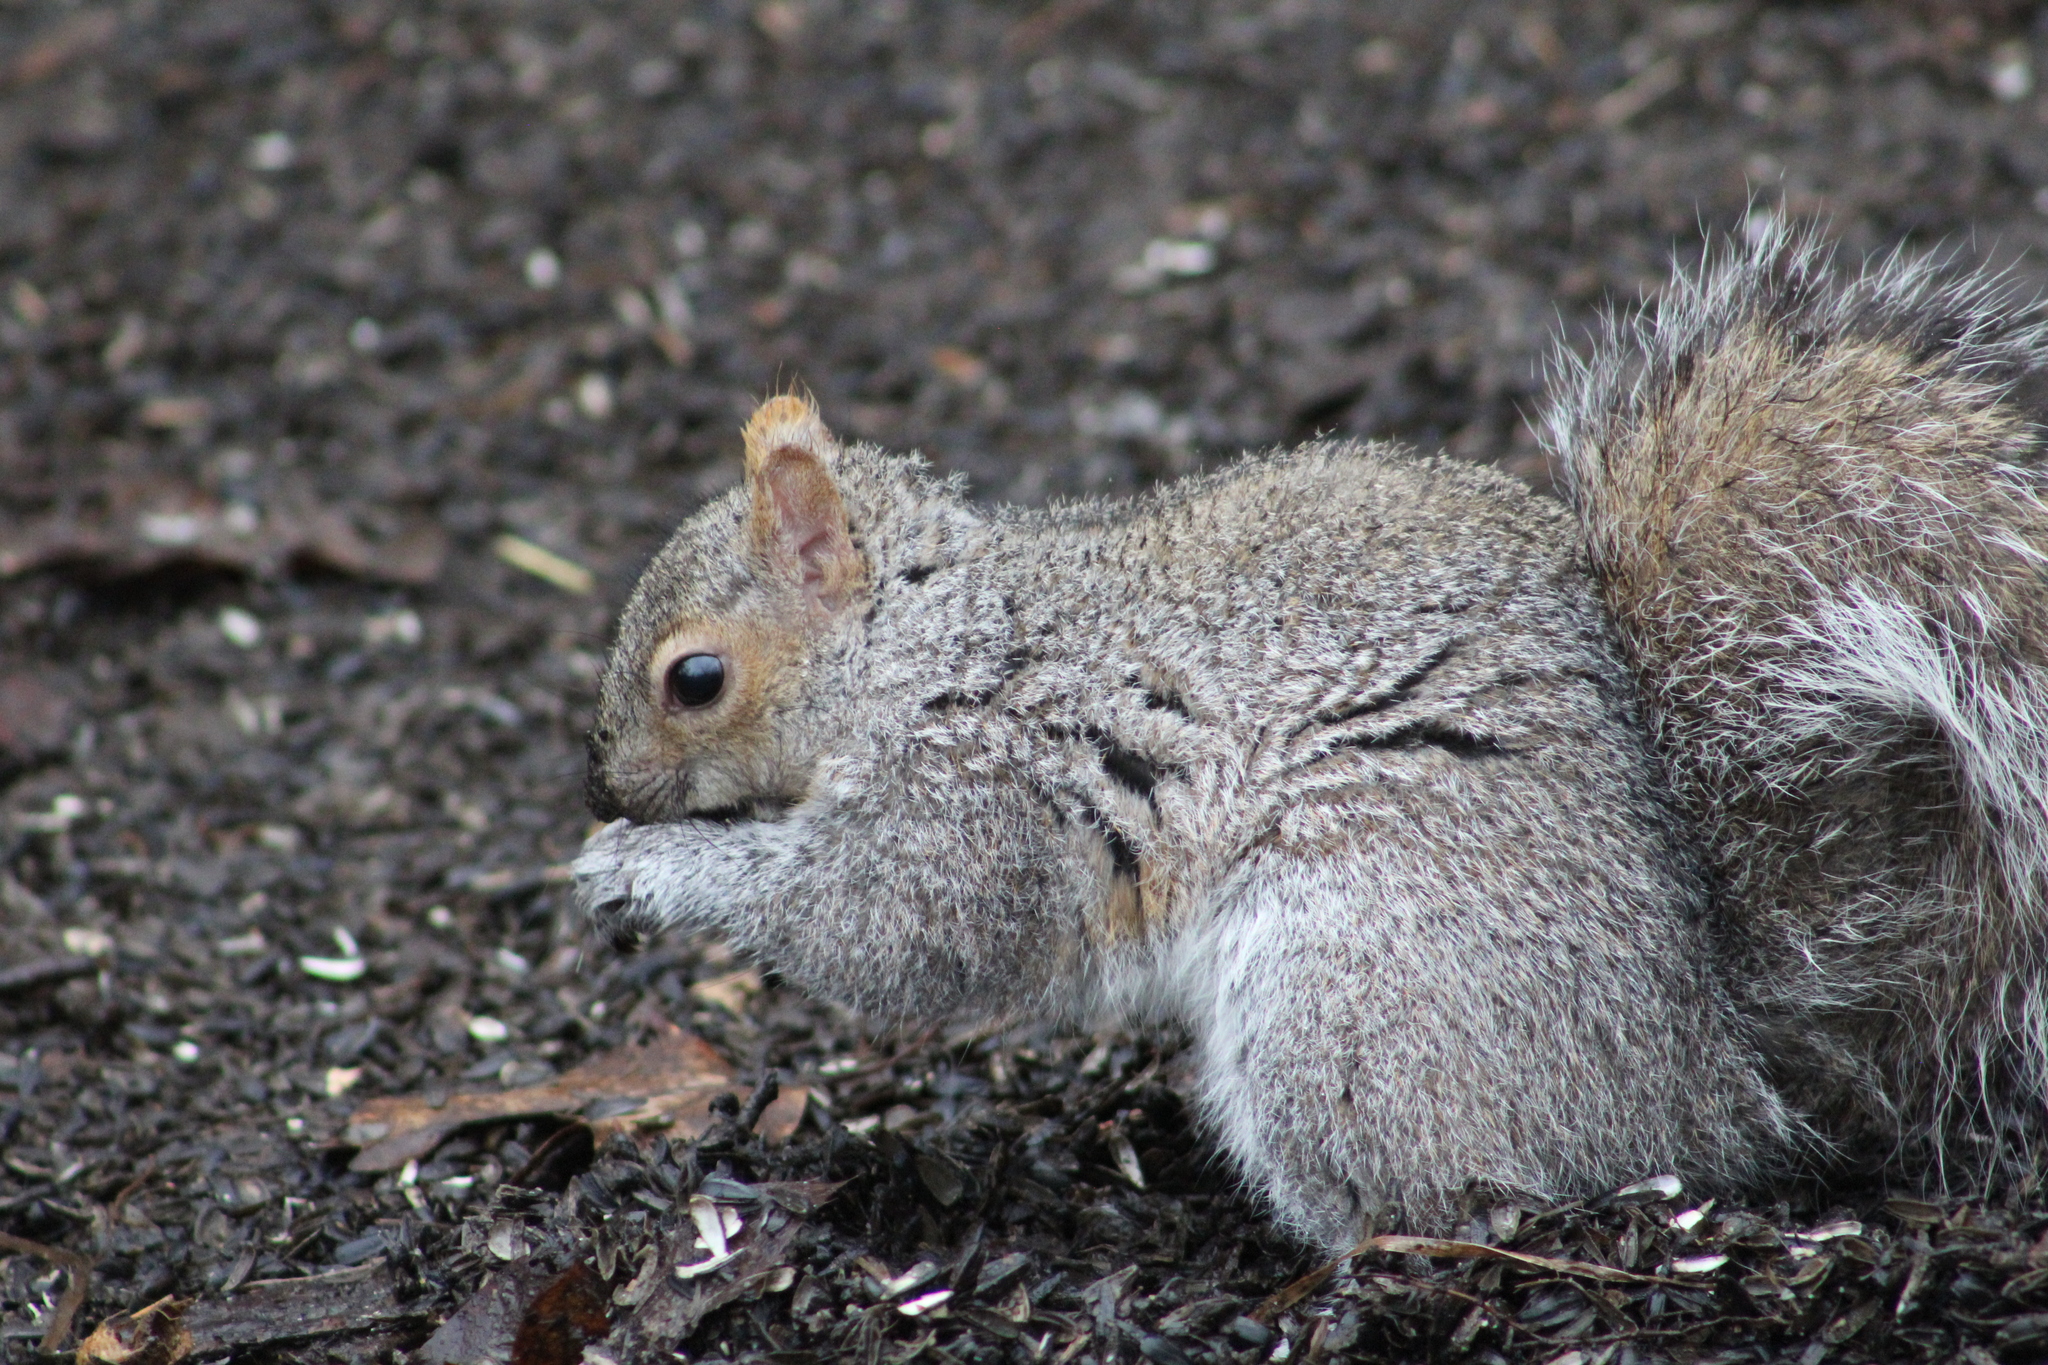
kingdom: Animalia
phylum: Chordata
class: Mammalia
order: Rodentia
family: Sciuridae
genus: Sciurus
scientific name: Sciurus carolinensis
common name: Eastern gray squirrel
